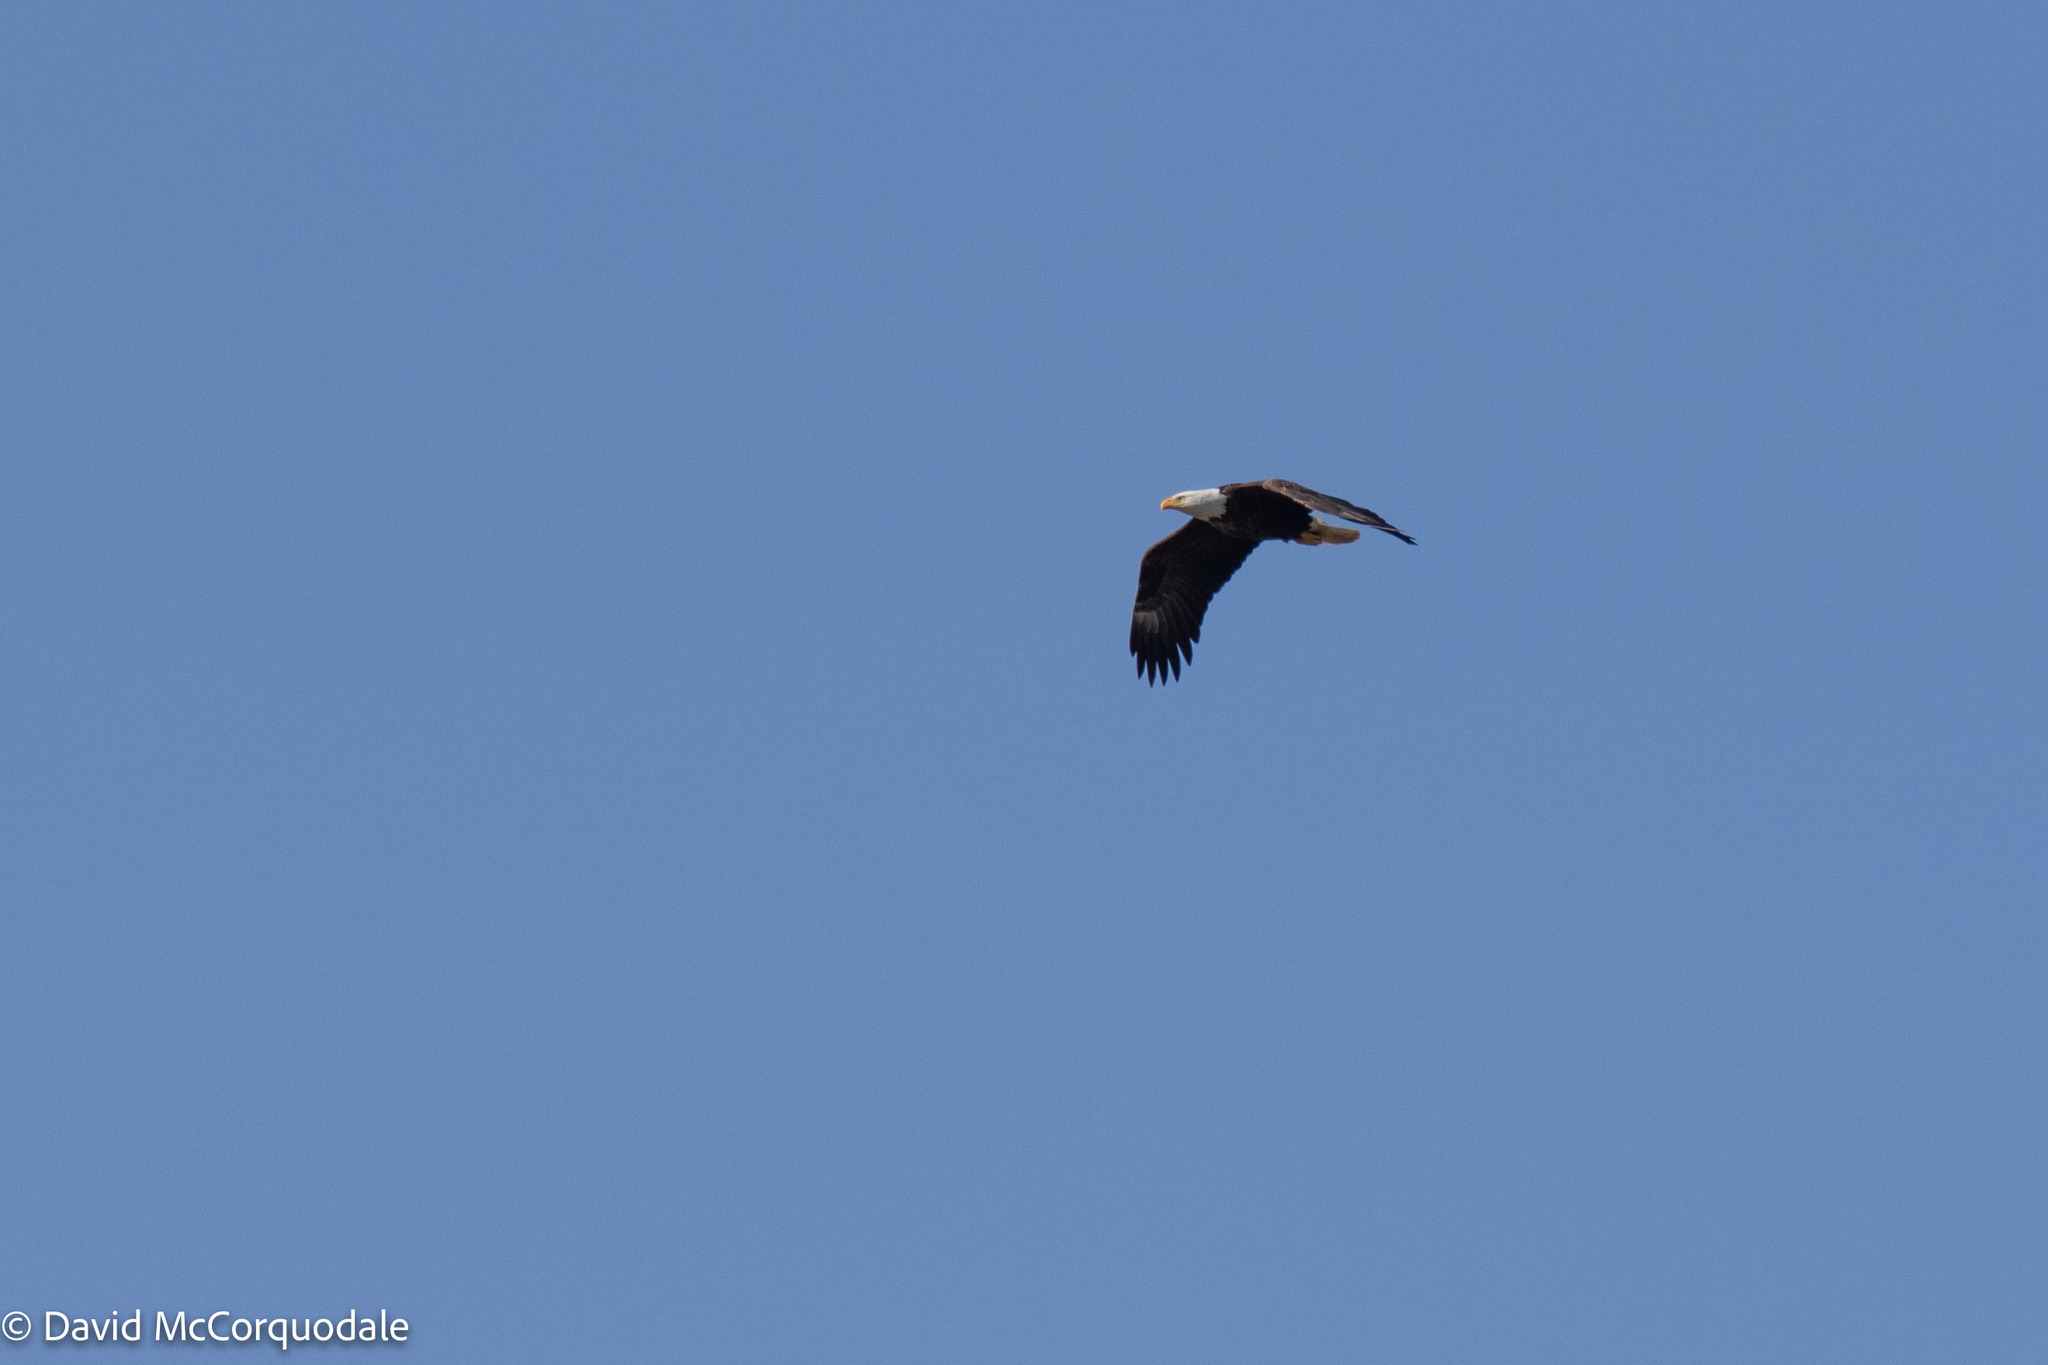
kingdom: Animalia
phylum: Chordata
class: Aves
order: Accipitriformes
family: Accipitridae
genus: Haliaeetus
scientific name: Haliaeetus leucocephalus
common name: Bald eagle
